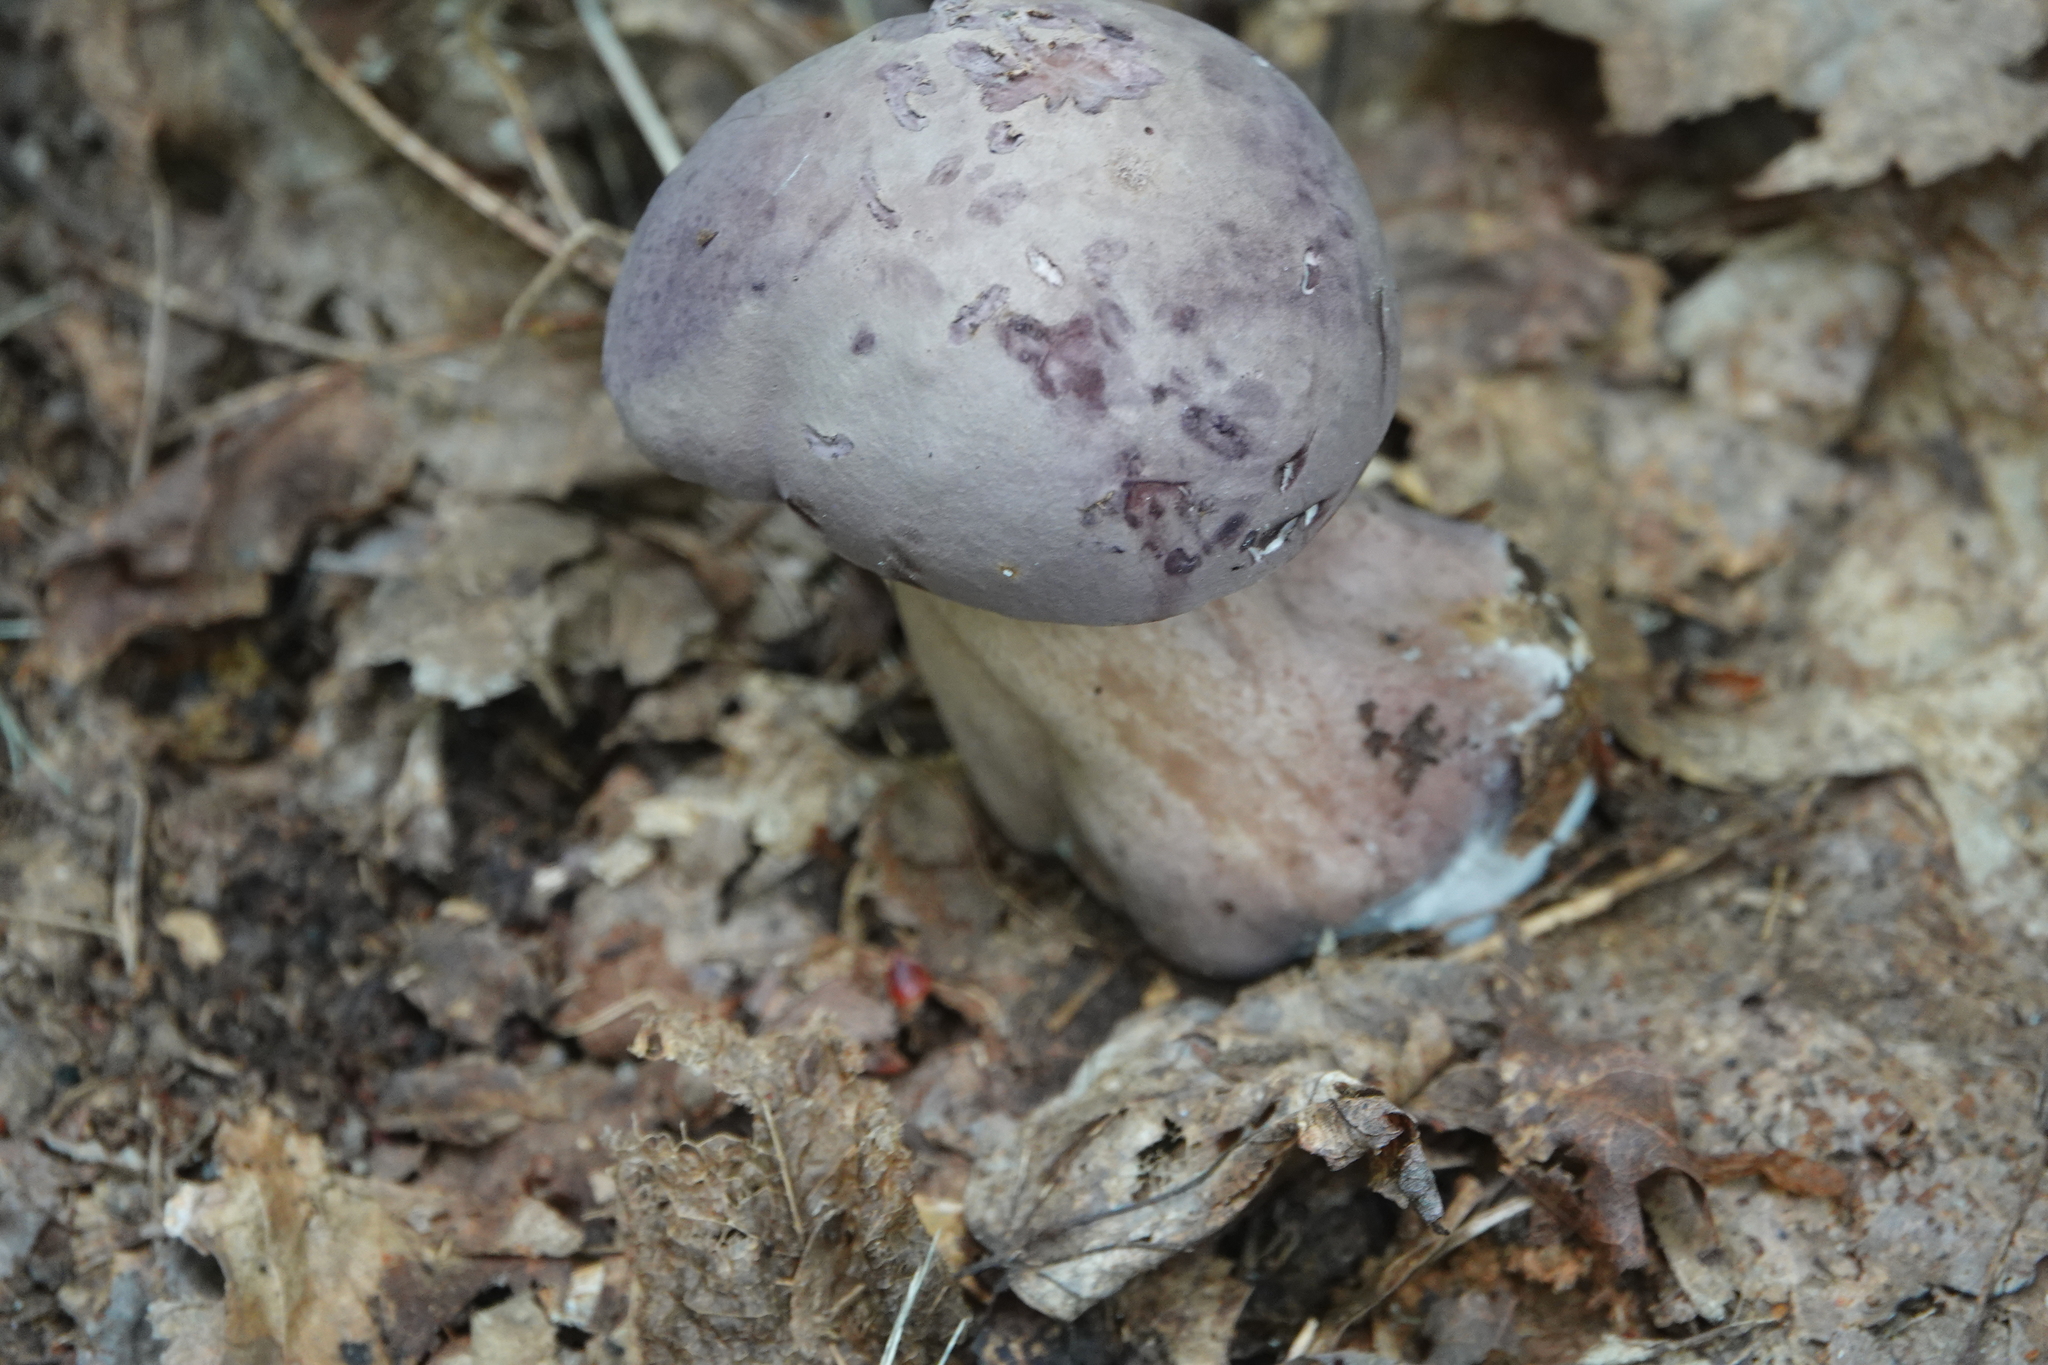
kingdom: Fungi
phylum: Basidiomycota
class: Agaricomycetes
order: Boletales
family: Boletaceae
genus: Tylopilus
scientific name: Tylopilus plumbeoviolaceus
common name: Violet gray bolete
